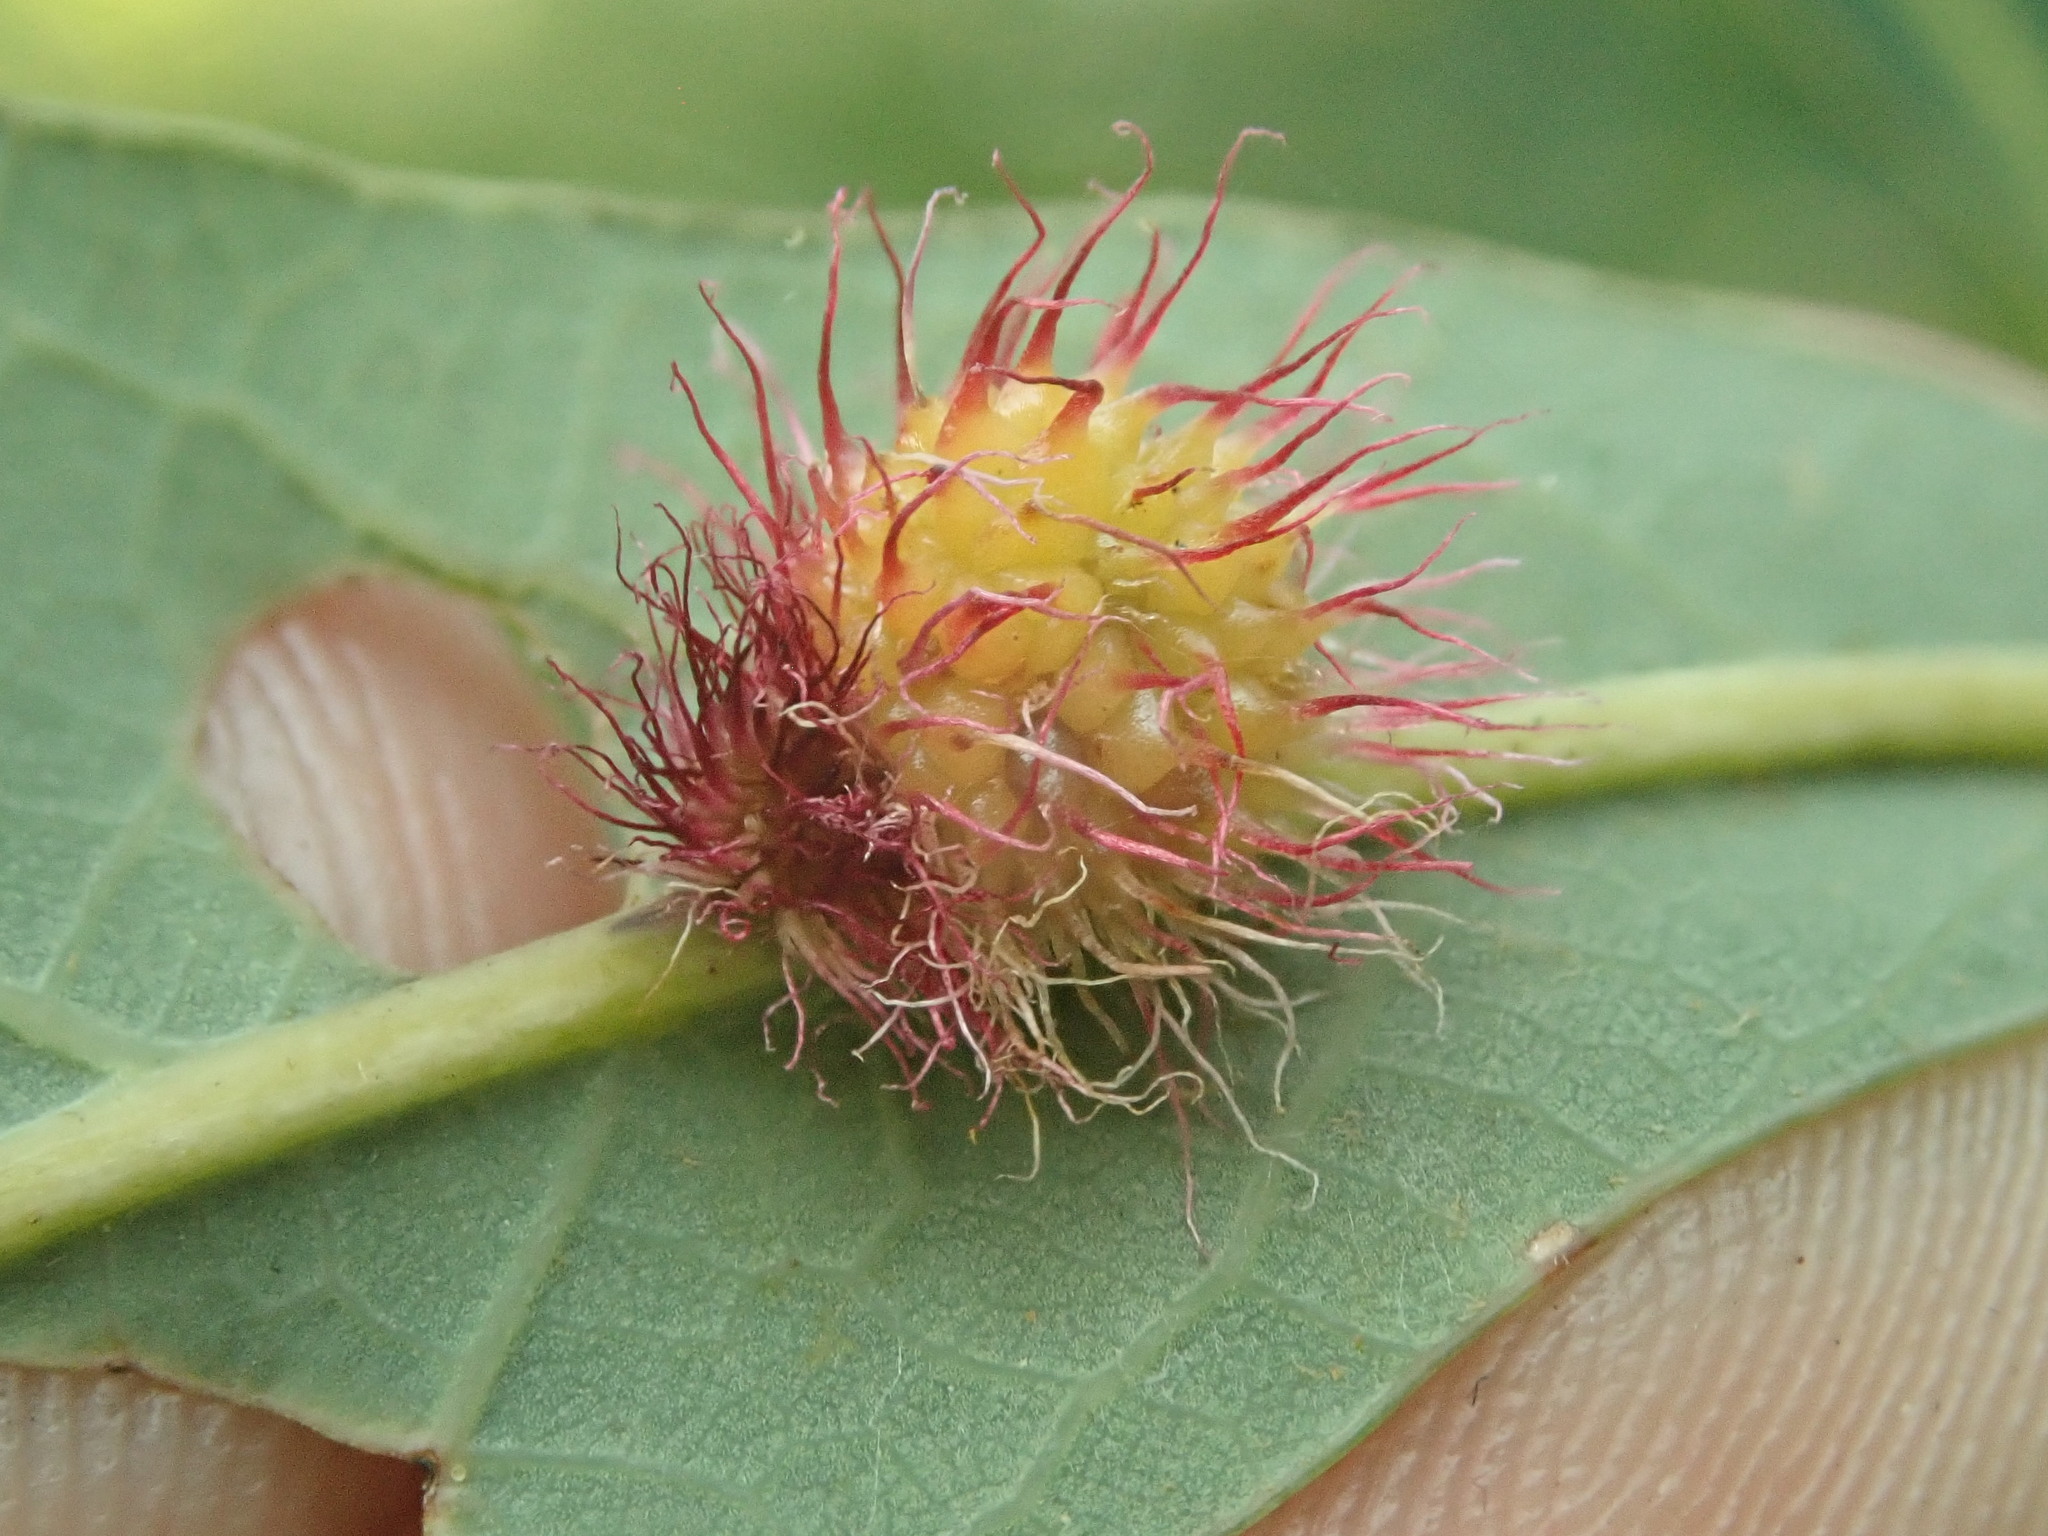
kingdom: Animalia
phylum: Arthropoda
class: Insecta
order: Hymenoptera
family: Cynipidae
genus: Acraspis
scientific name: Acraspis erinacei
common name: Hedgehog gall wasp
